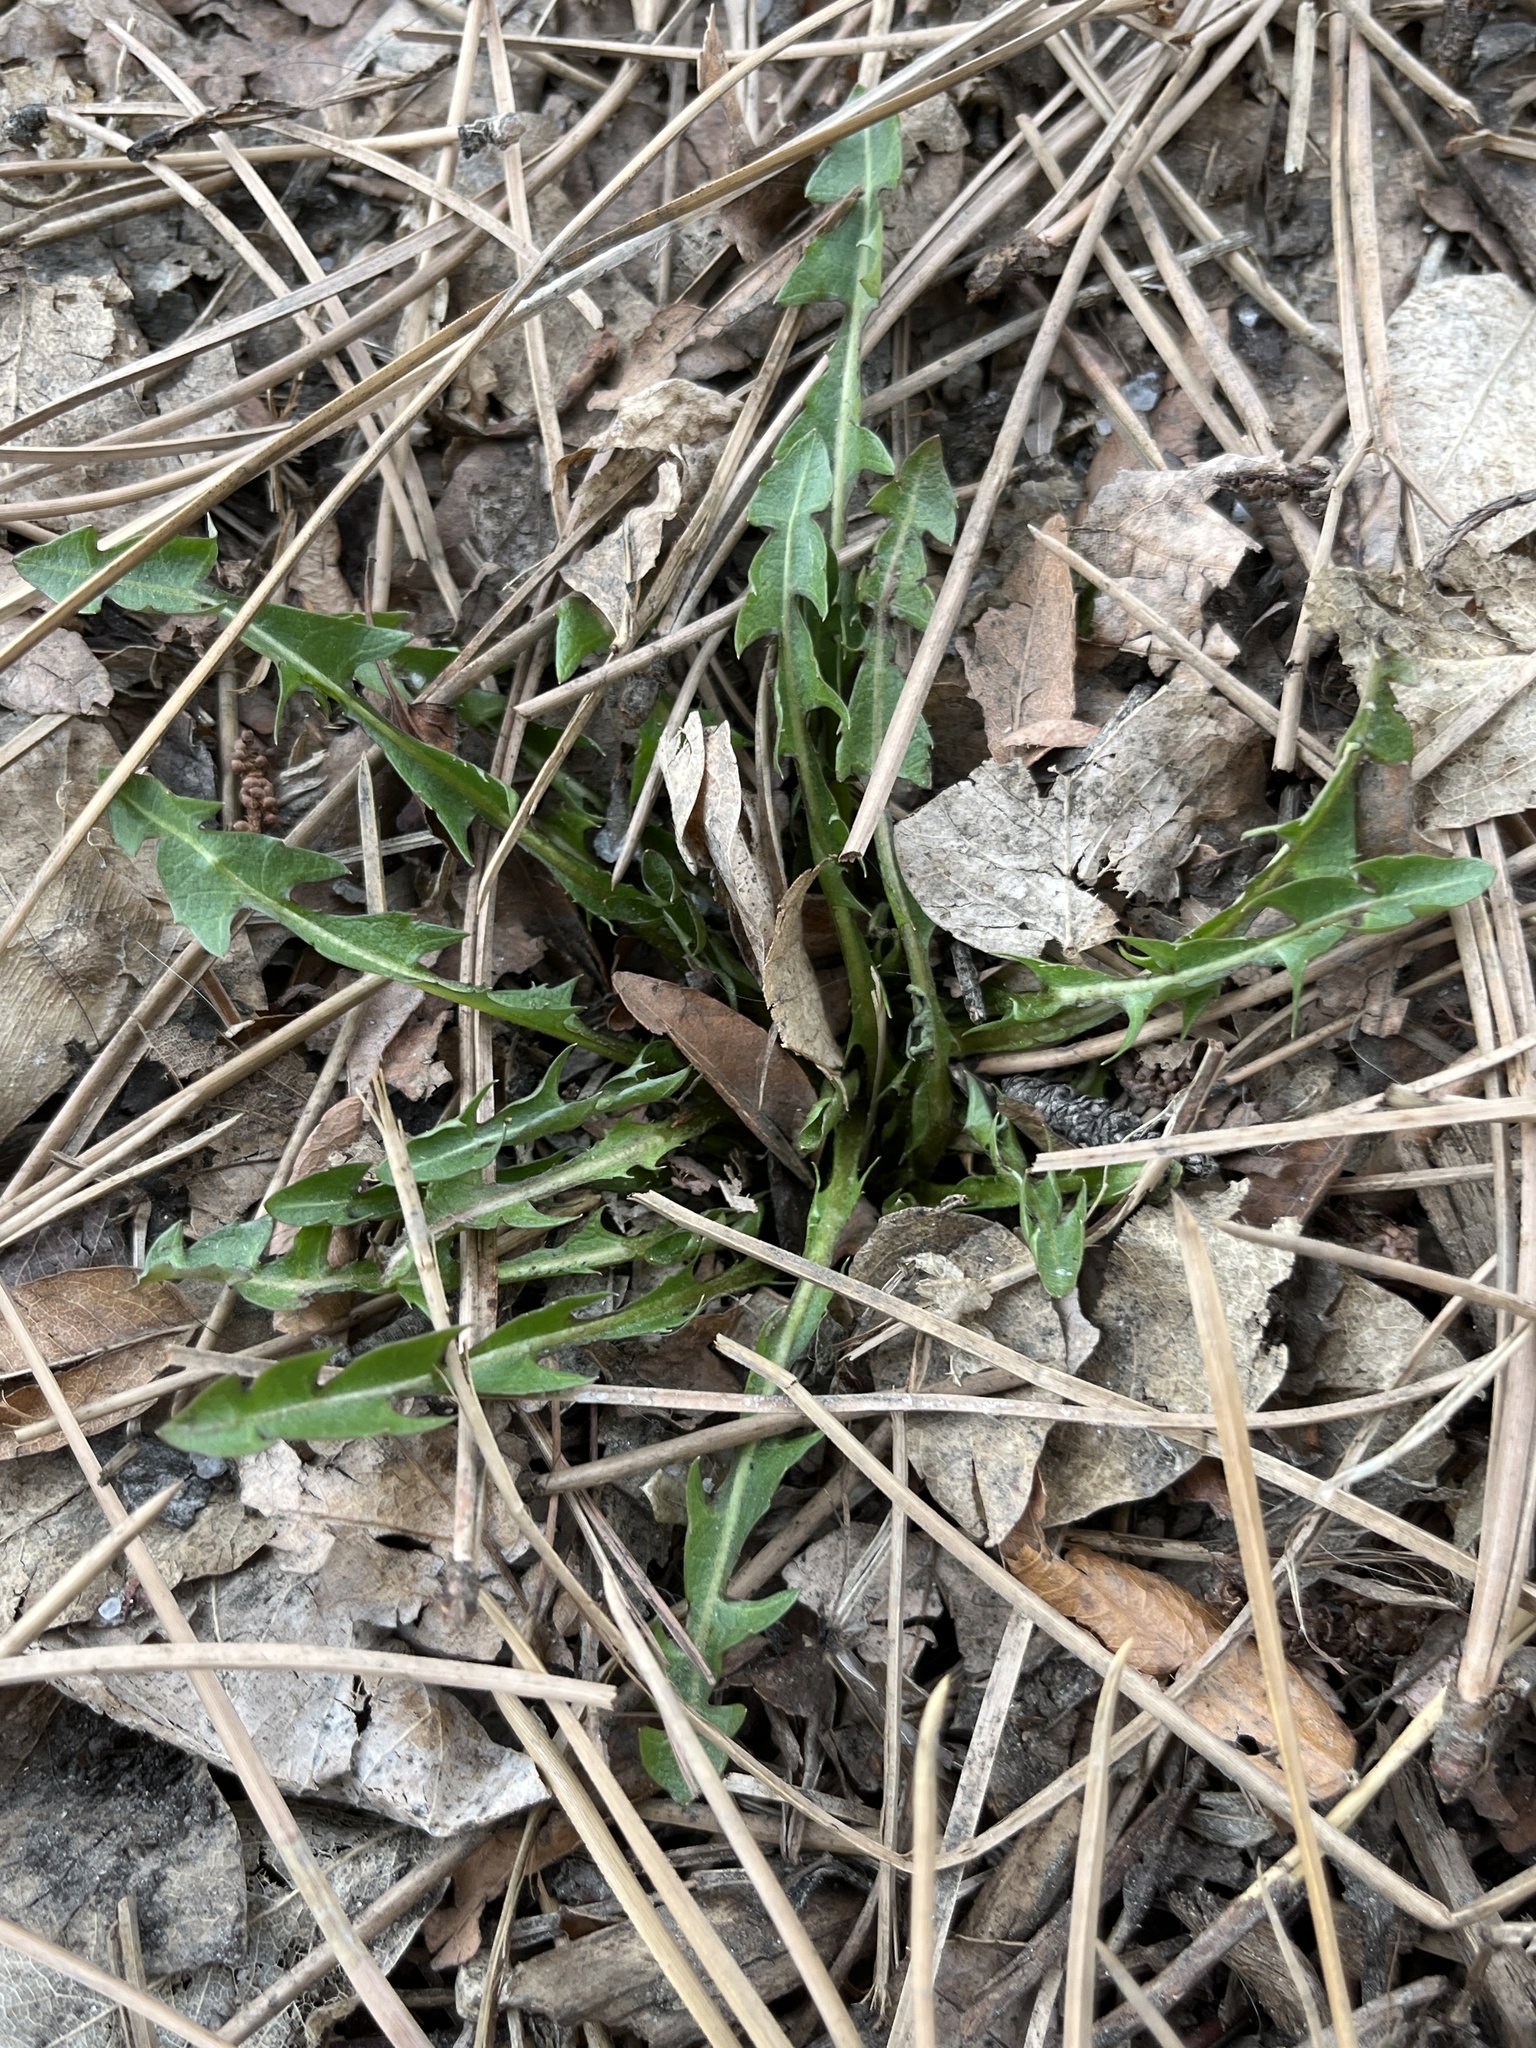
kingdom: Plantae
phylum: Tracheophyta
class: Magnoliopsida
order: Asterales
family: Asteraceae
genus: Taraxacum
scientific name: Taraxacum officinale
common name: Common dandelion
